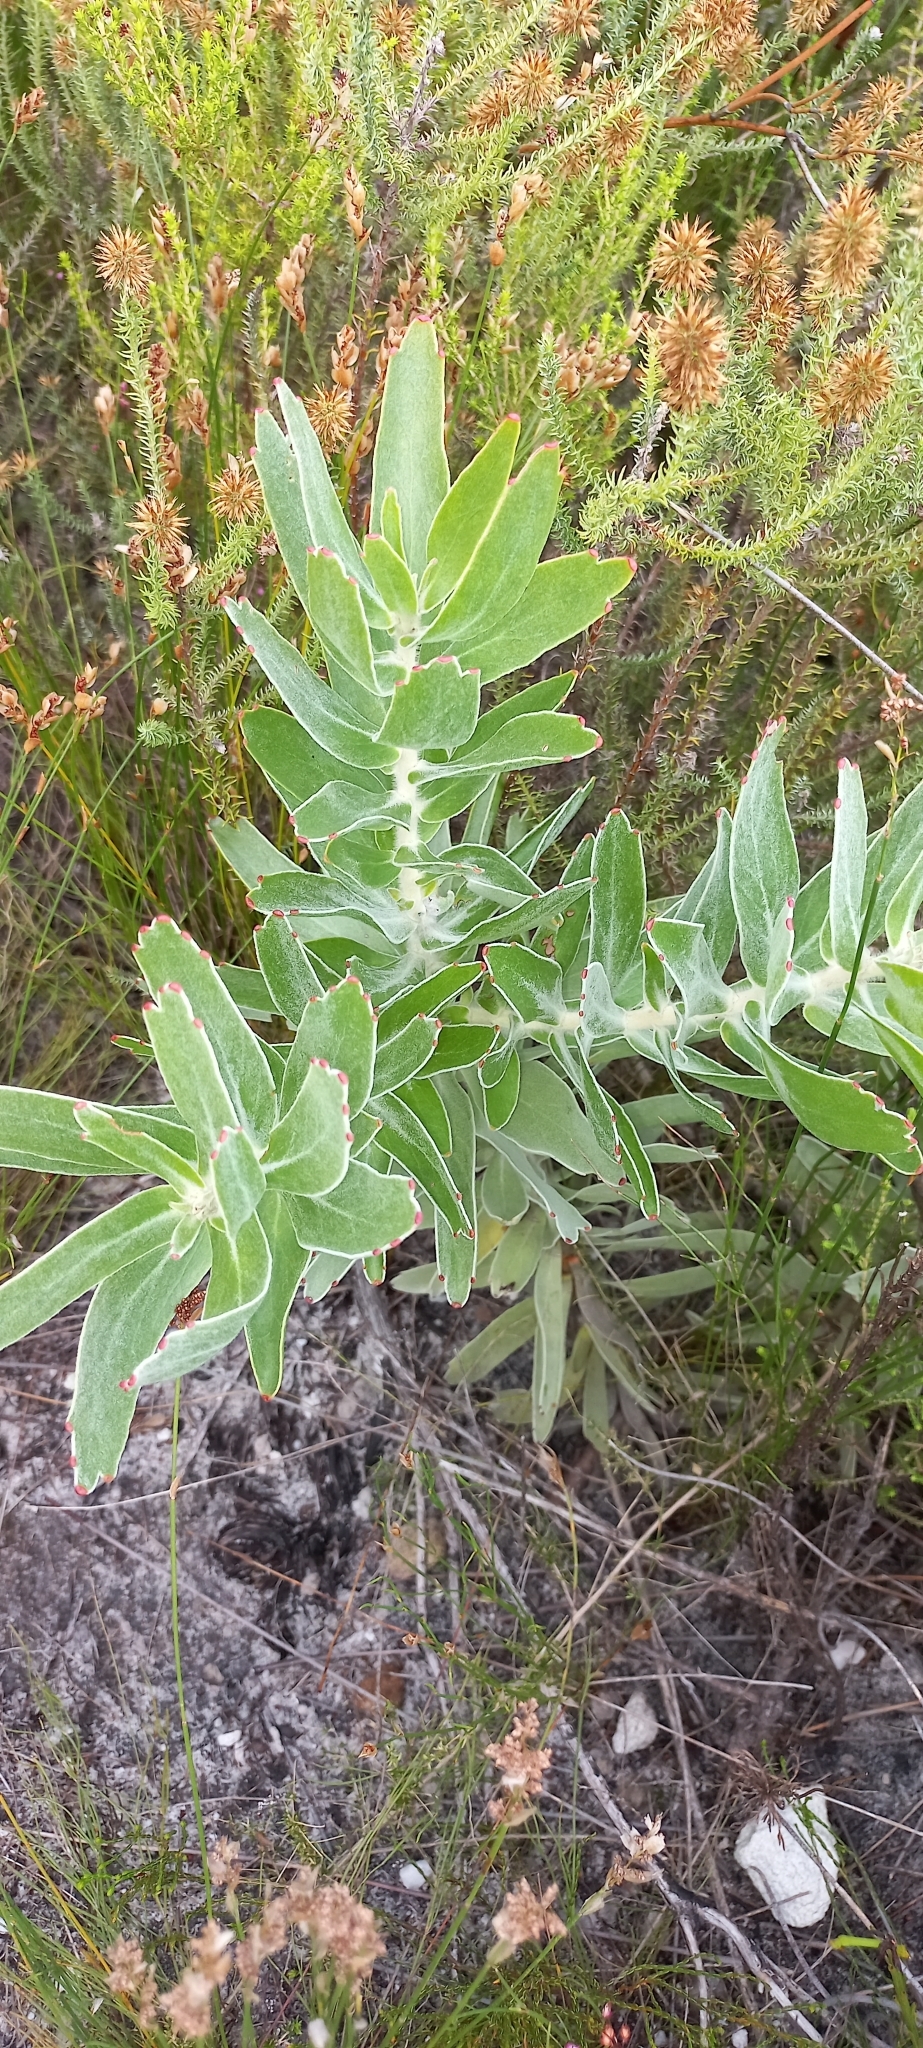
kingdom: Plantae
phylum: Tracheophyta
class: Magnoliopsida
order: Proteales
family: Proteaceae
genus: Leucospermum
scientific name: Leucospermum cordifolium
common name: Red pincushion-protea
